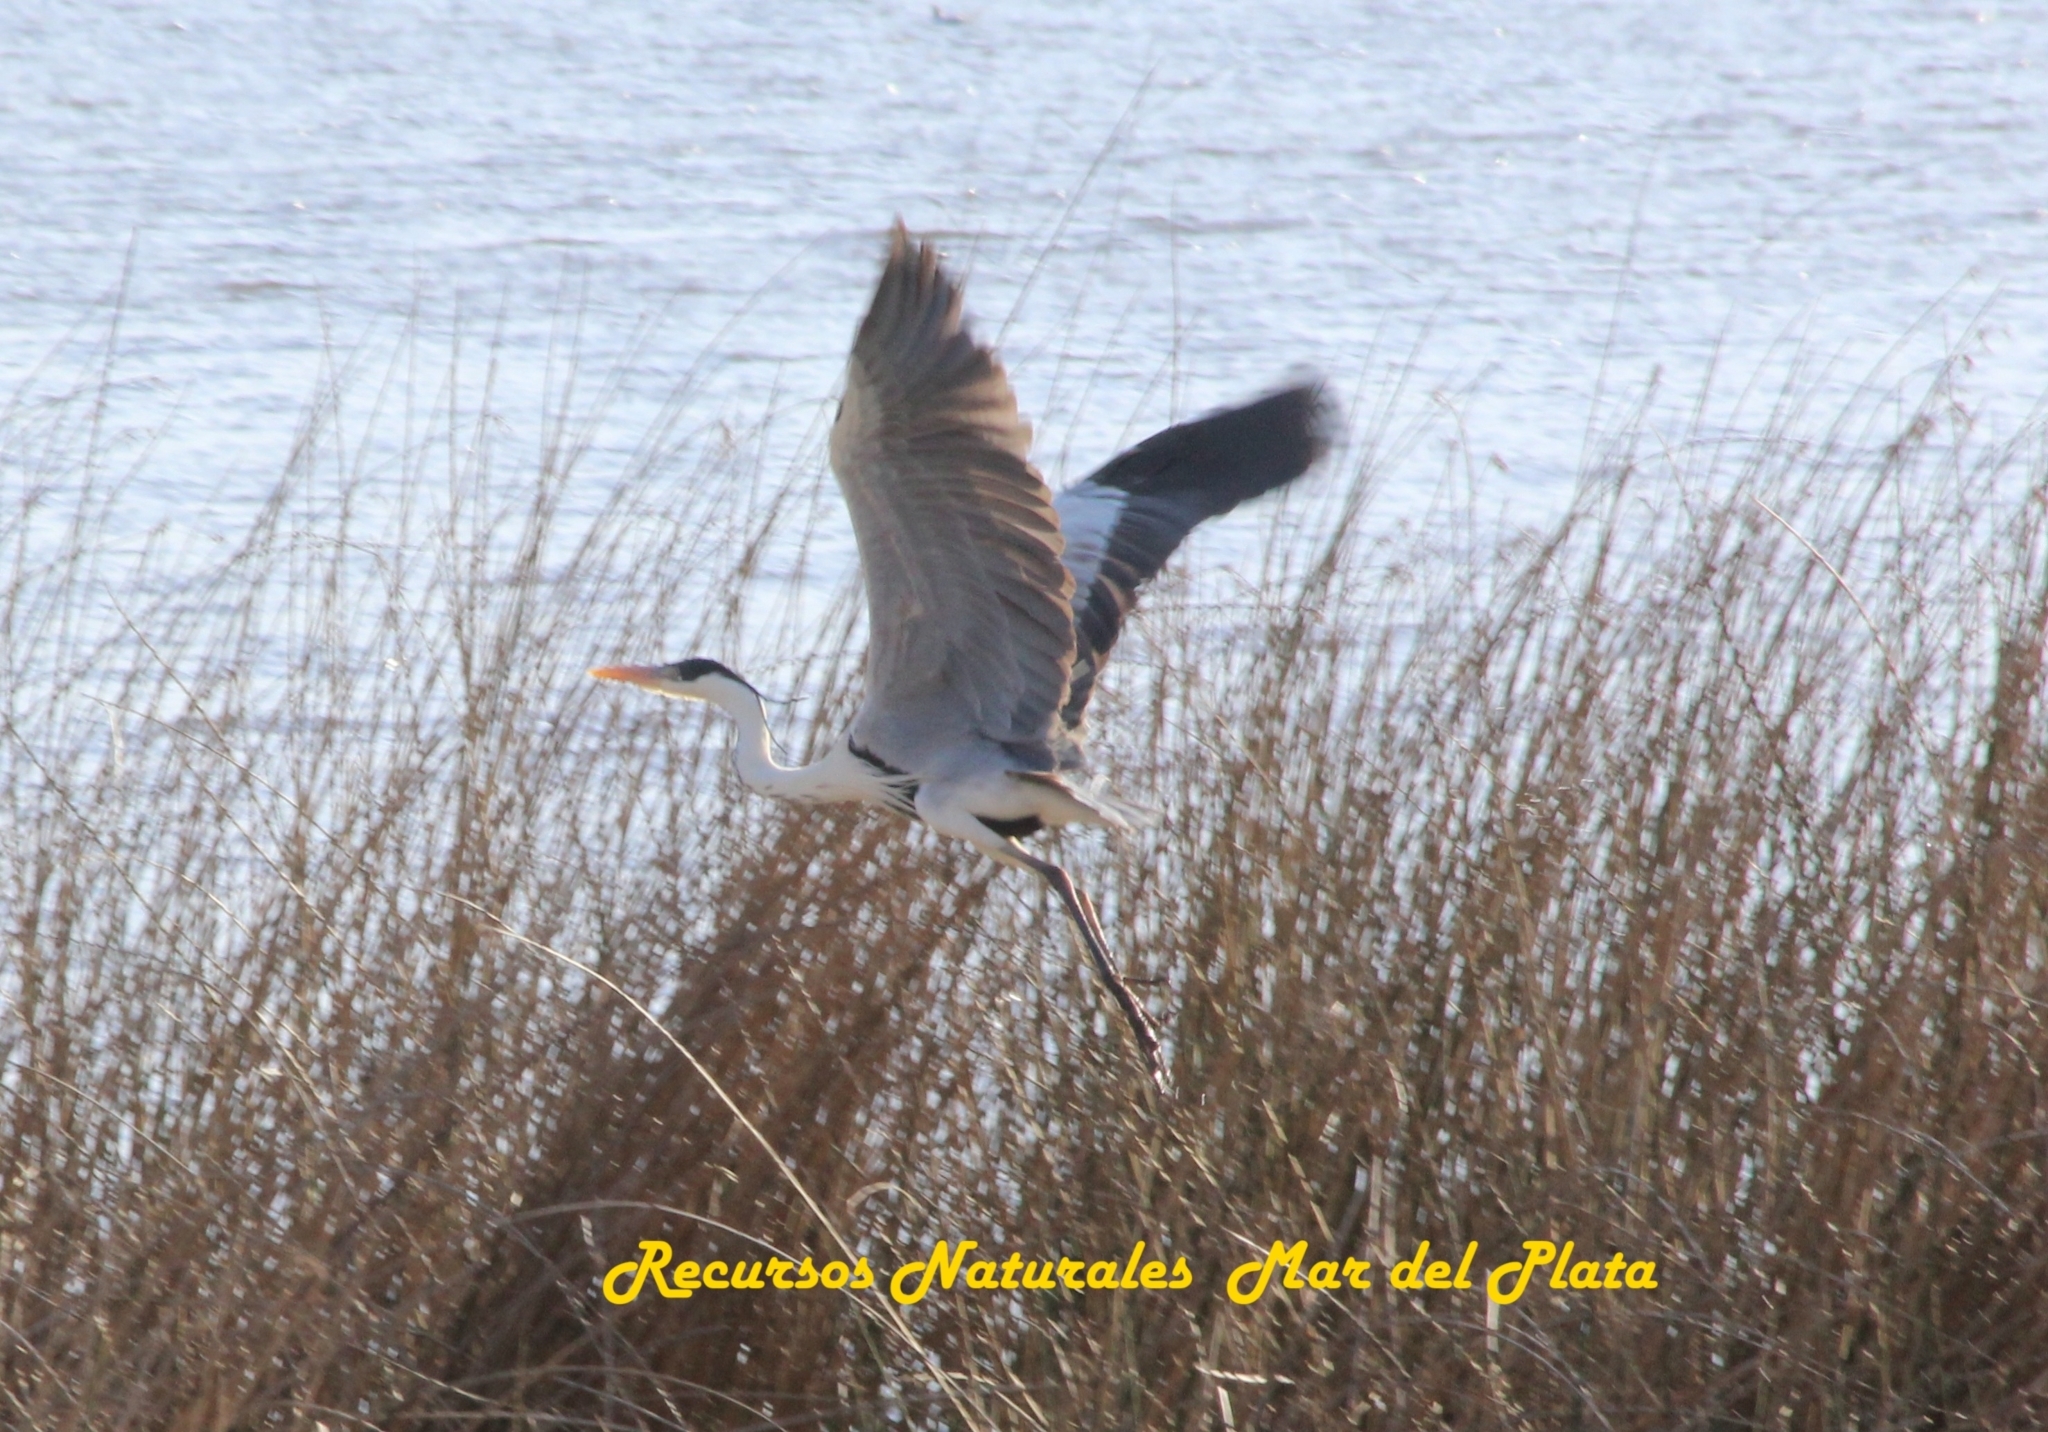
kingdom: Animalia
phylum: Chordata
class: Aves
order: Pelecaniformes
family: Ardeidae
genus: Ardea
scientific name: Ardea cocoi
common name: Cocoi heron
